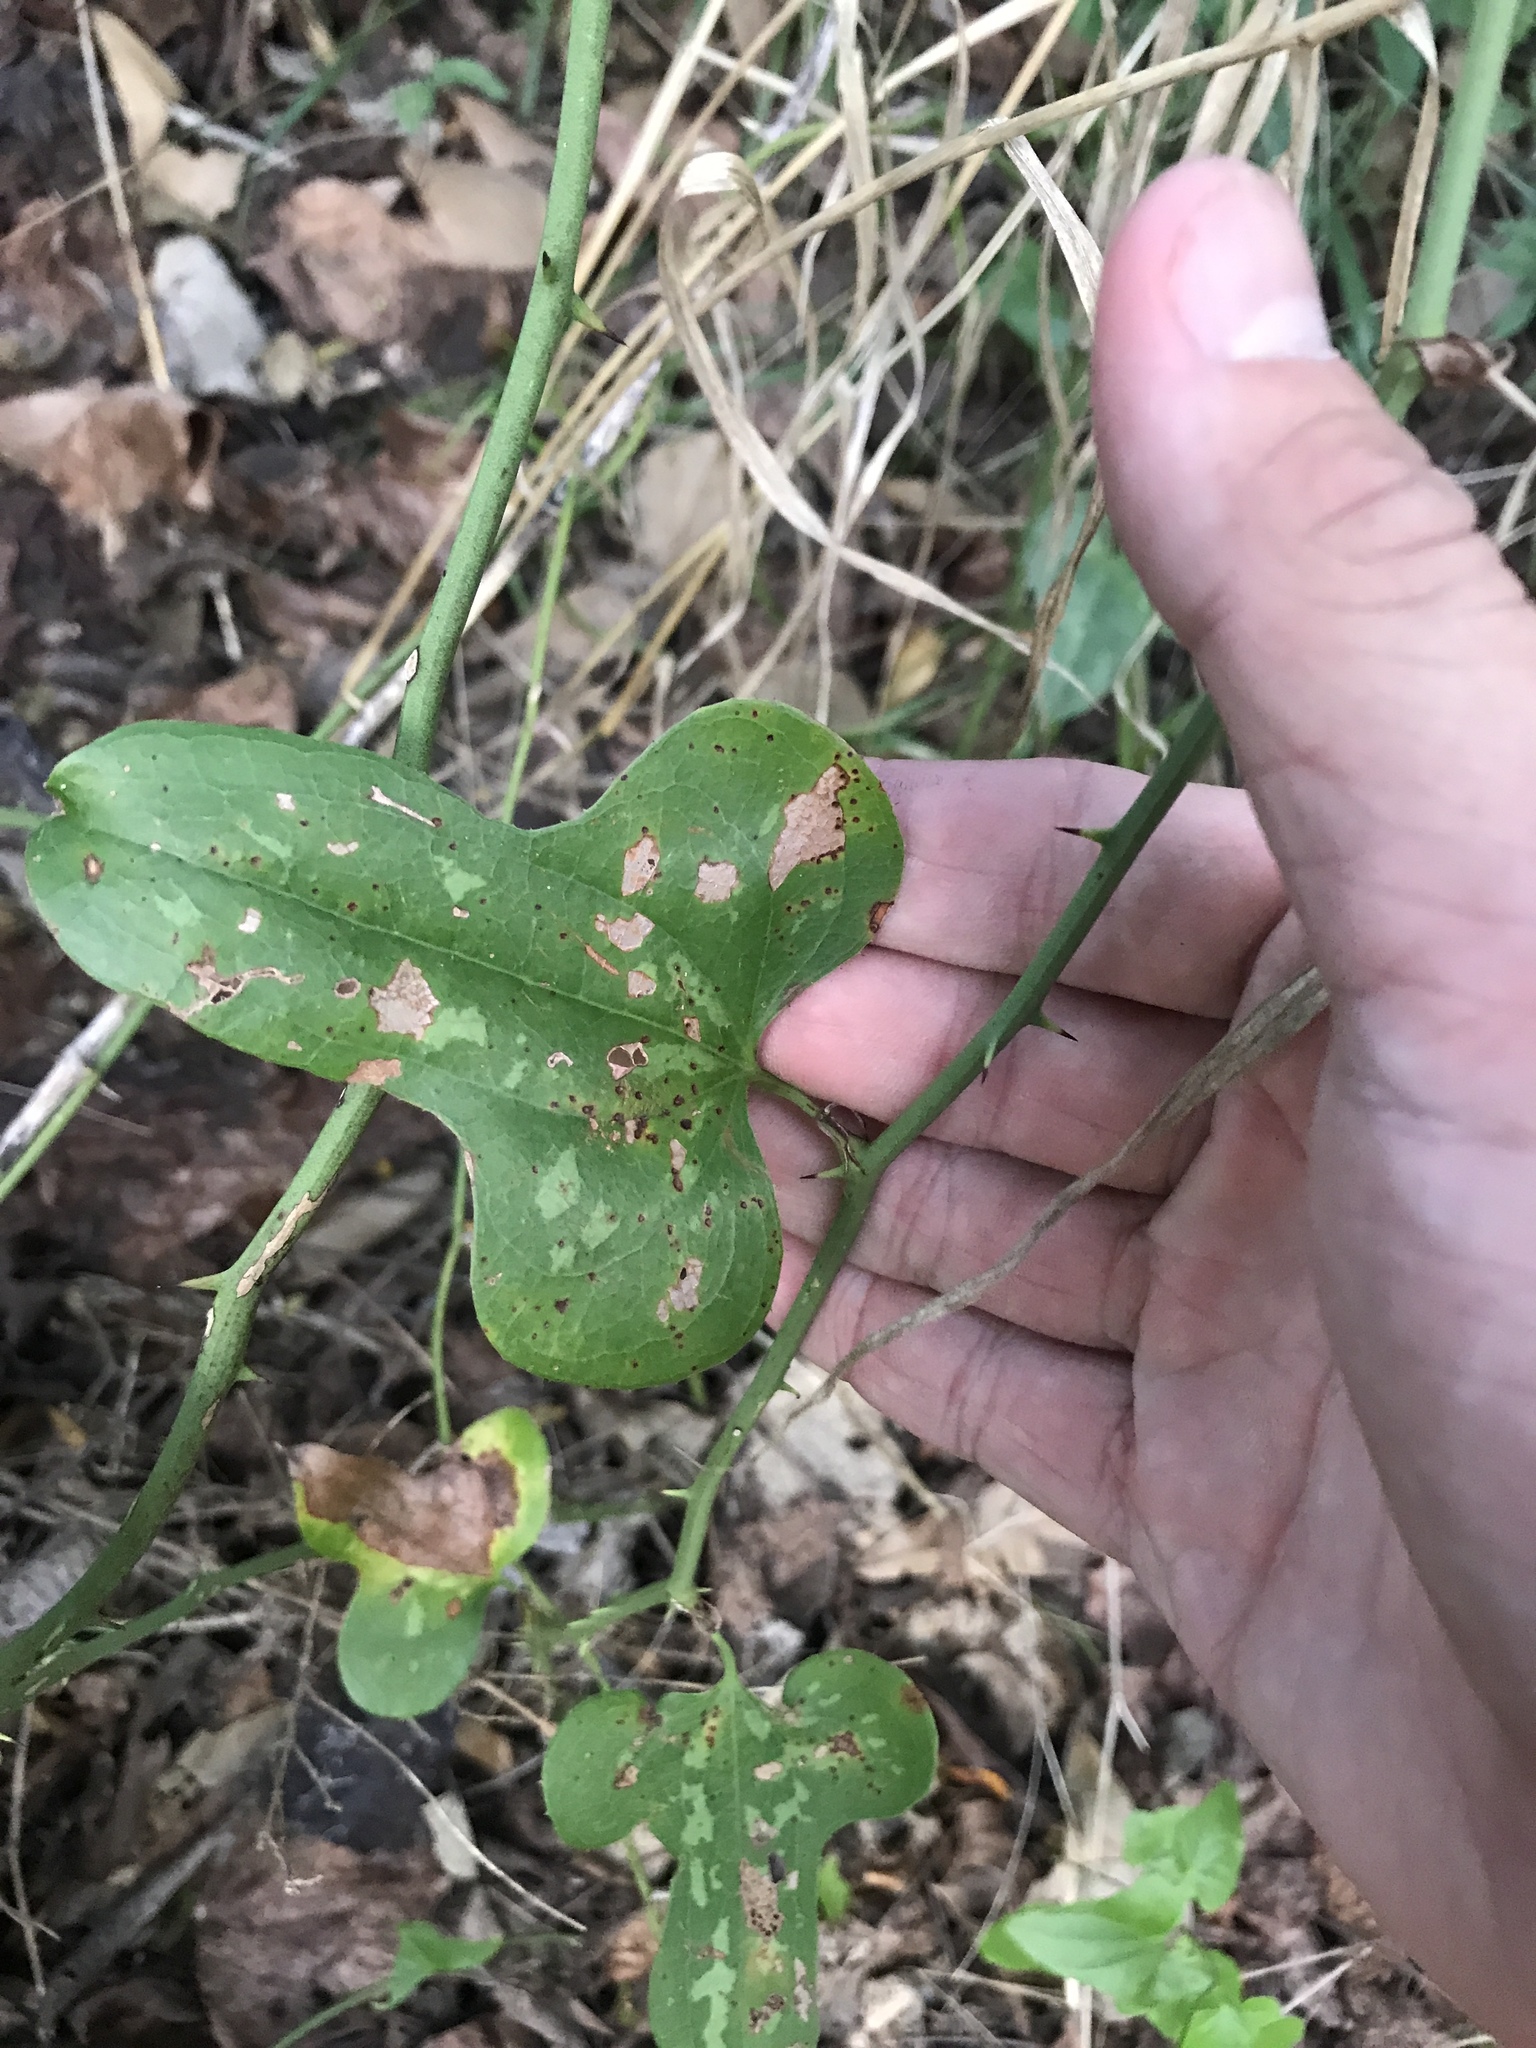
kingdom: Plantae
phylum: Tracheophyta
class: Liliopsida
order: Liliales
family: Smilacaceae
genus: Smilax
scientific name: Smilax bona-nox
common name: Catbrier
